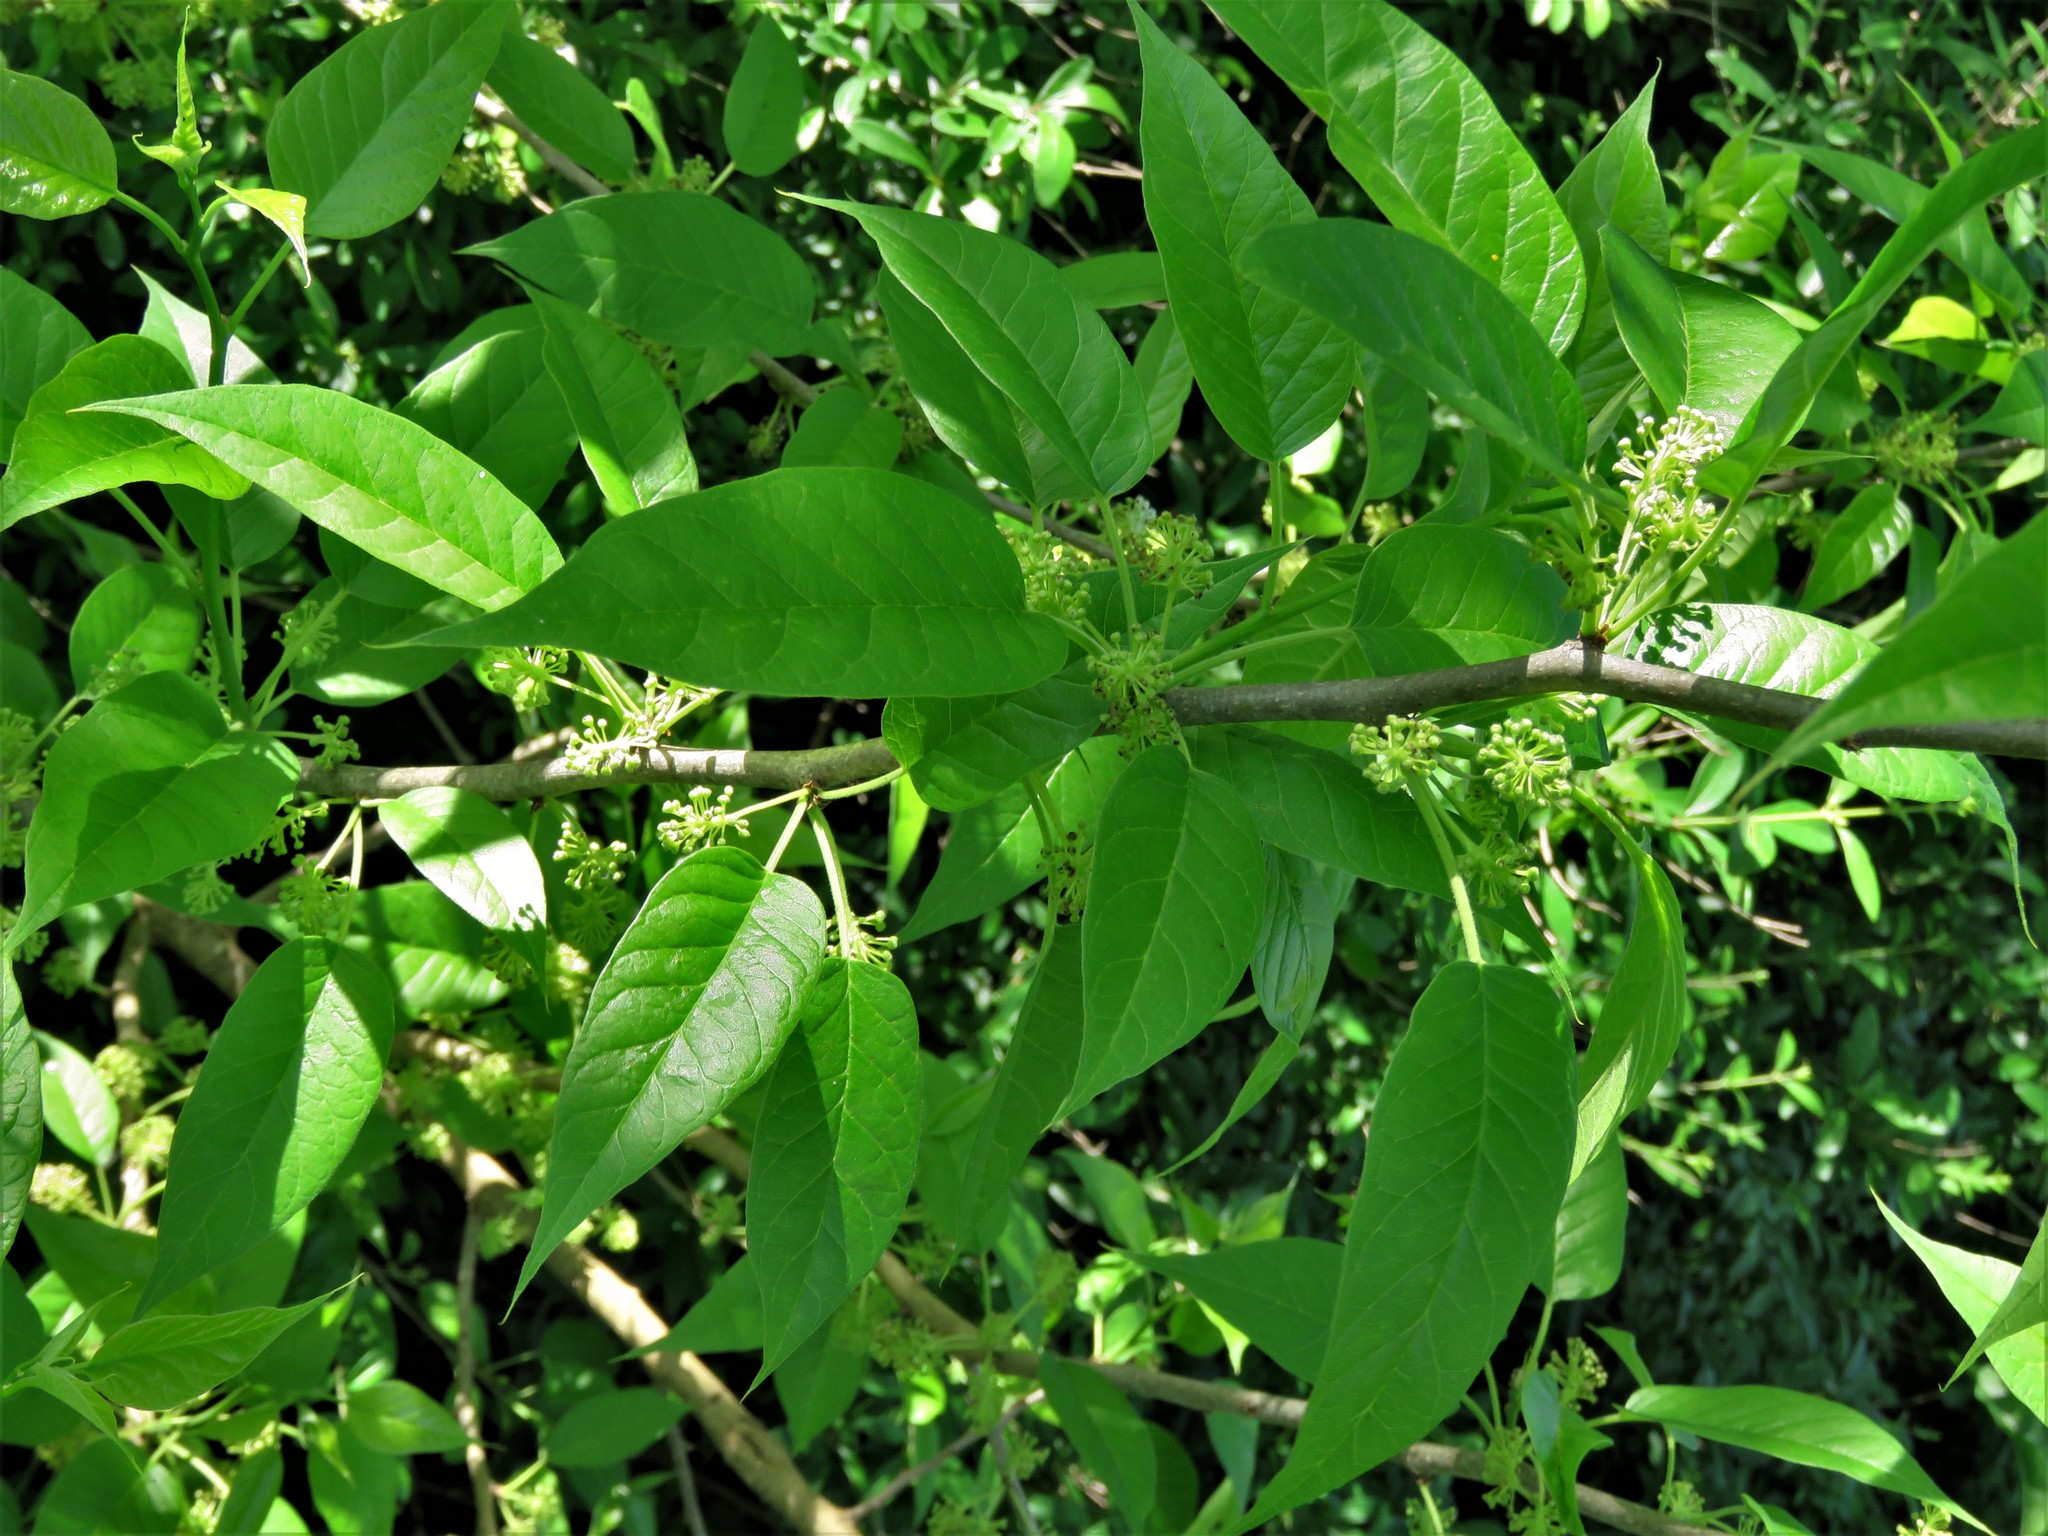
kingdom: Plantae
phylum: Tracheophyta
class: Magnoliopsida
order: Rosales
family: Moraceae
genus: Maclura
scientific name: Maclura pomifera
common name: Osage-orange
